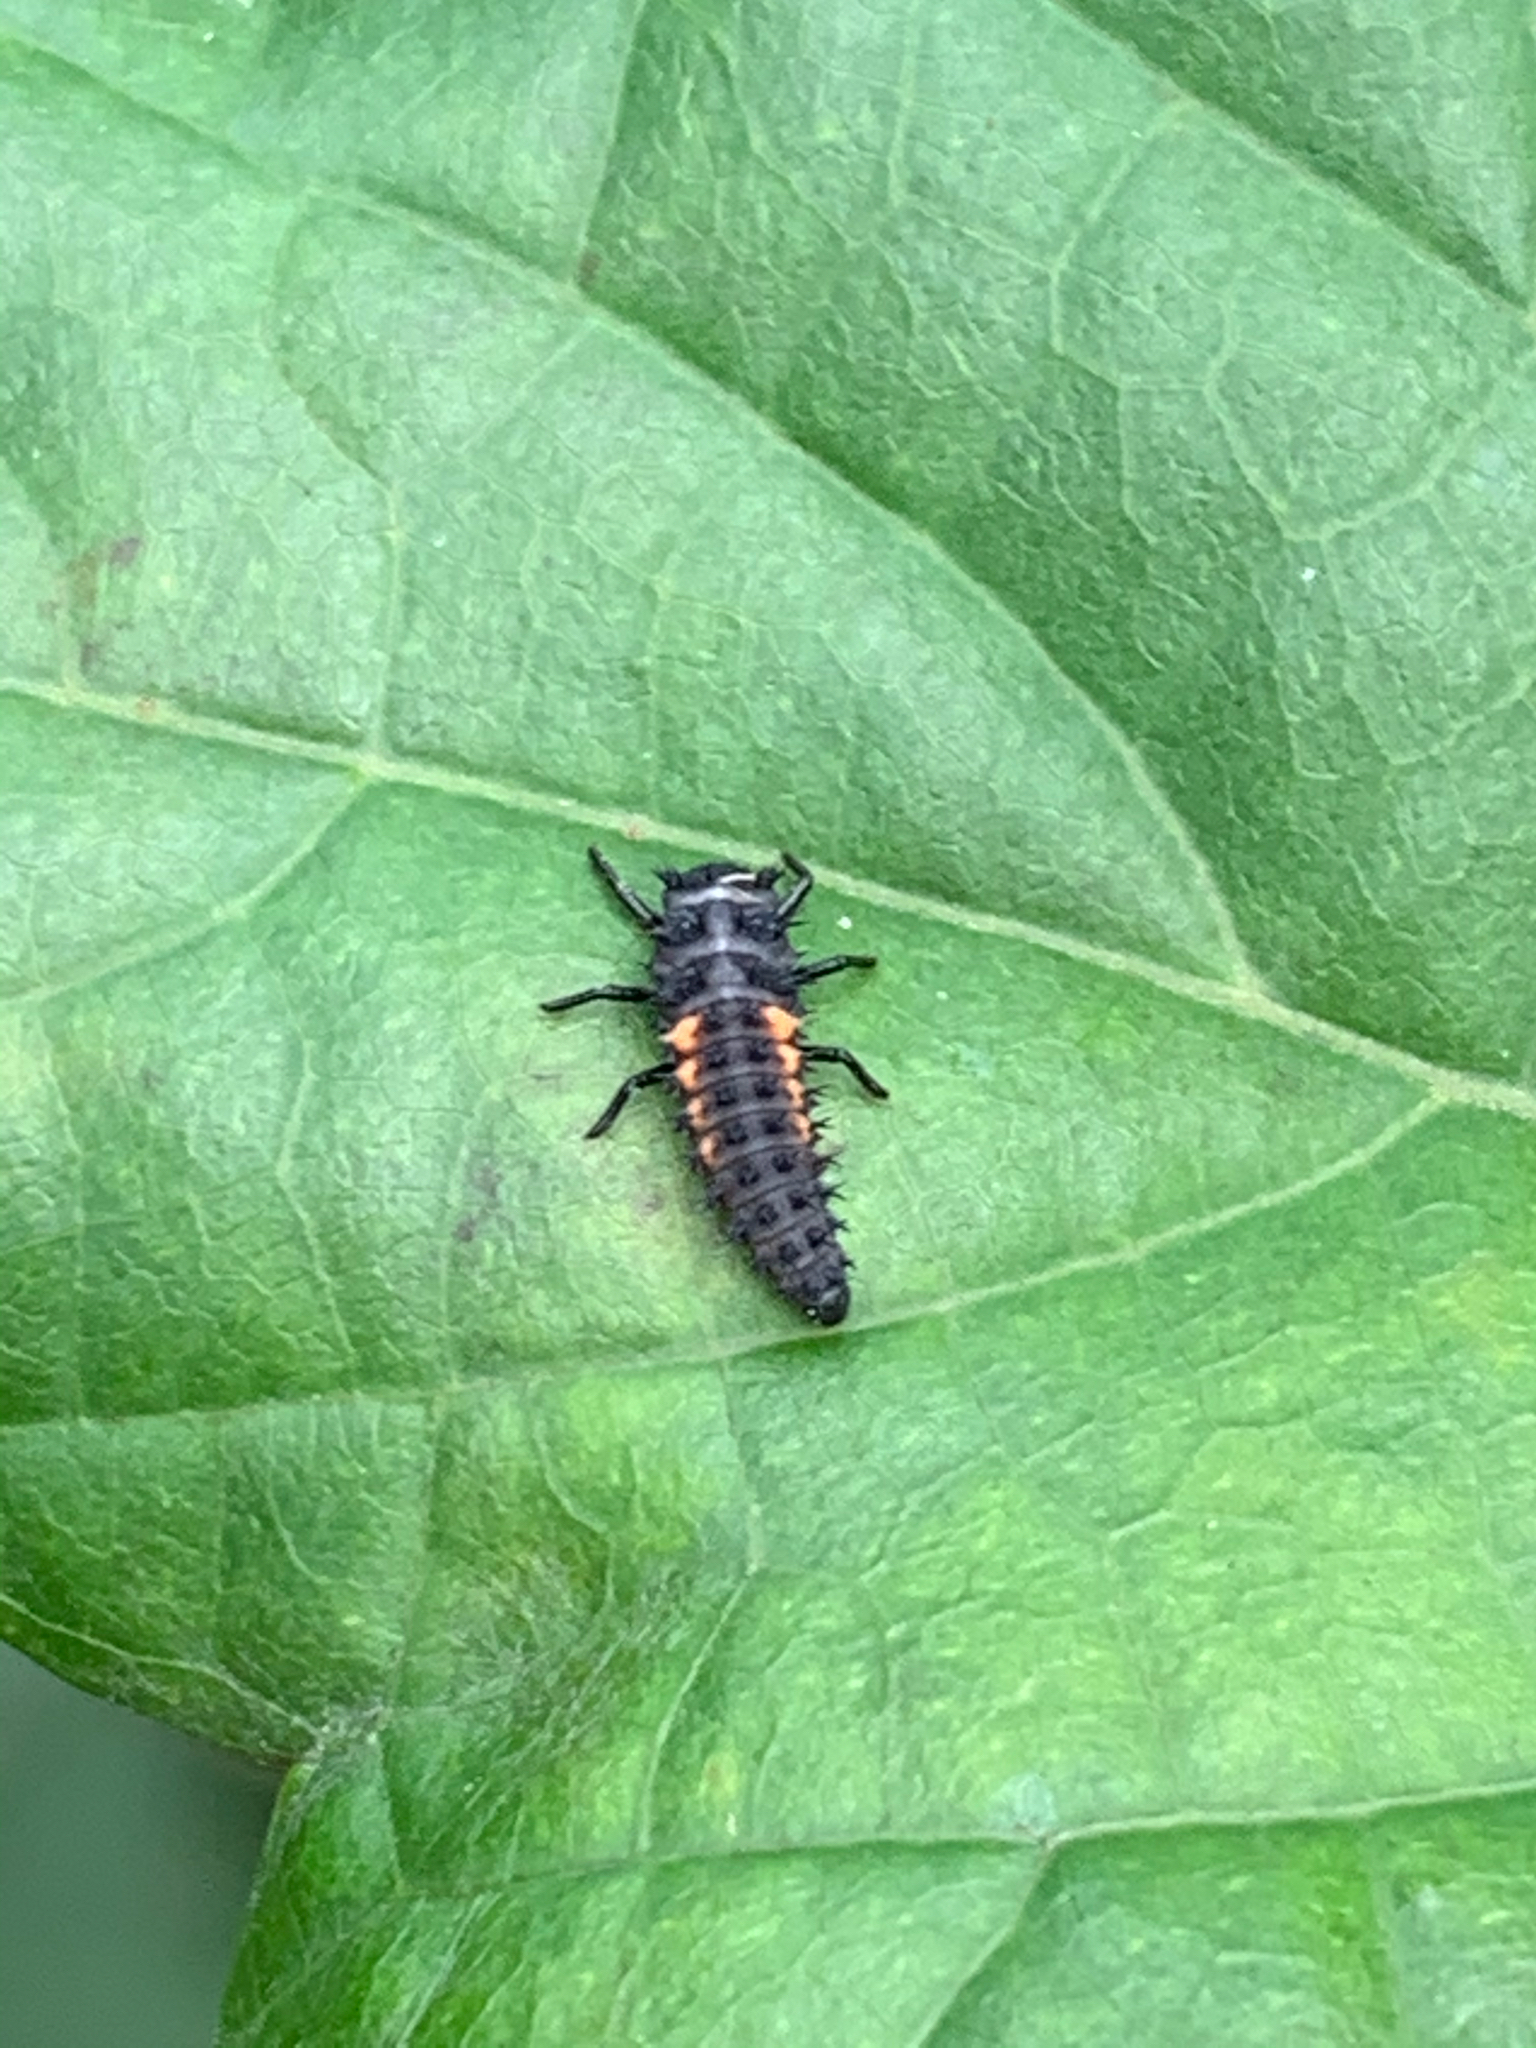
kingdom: Animalia
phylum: Arthropoda
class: Insecta
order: Coleoptera
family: Coccinellidae
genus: Harmonia
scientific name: Harmonia axyridis
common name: Harlequin ladybird
